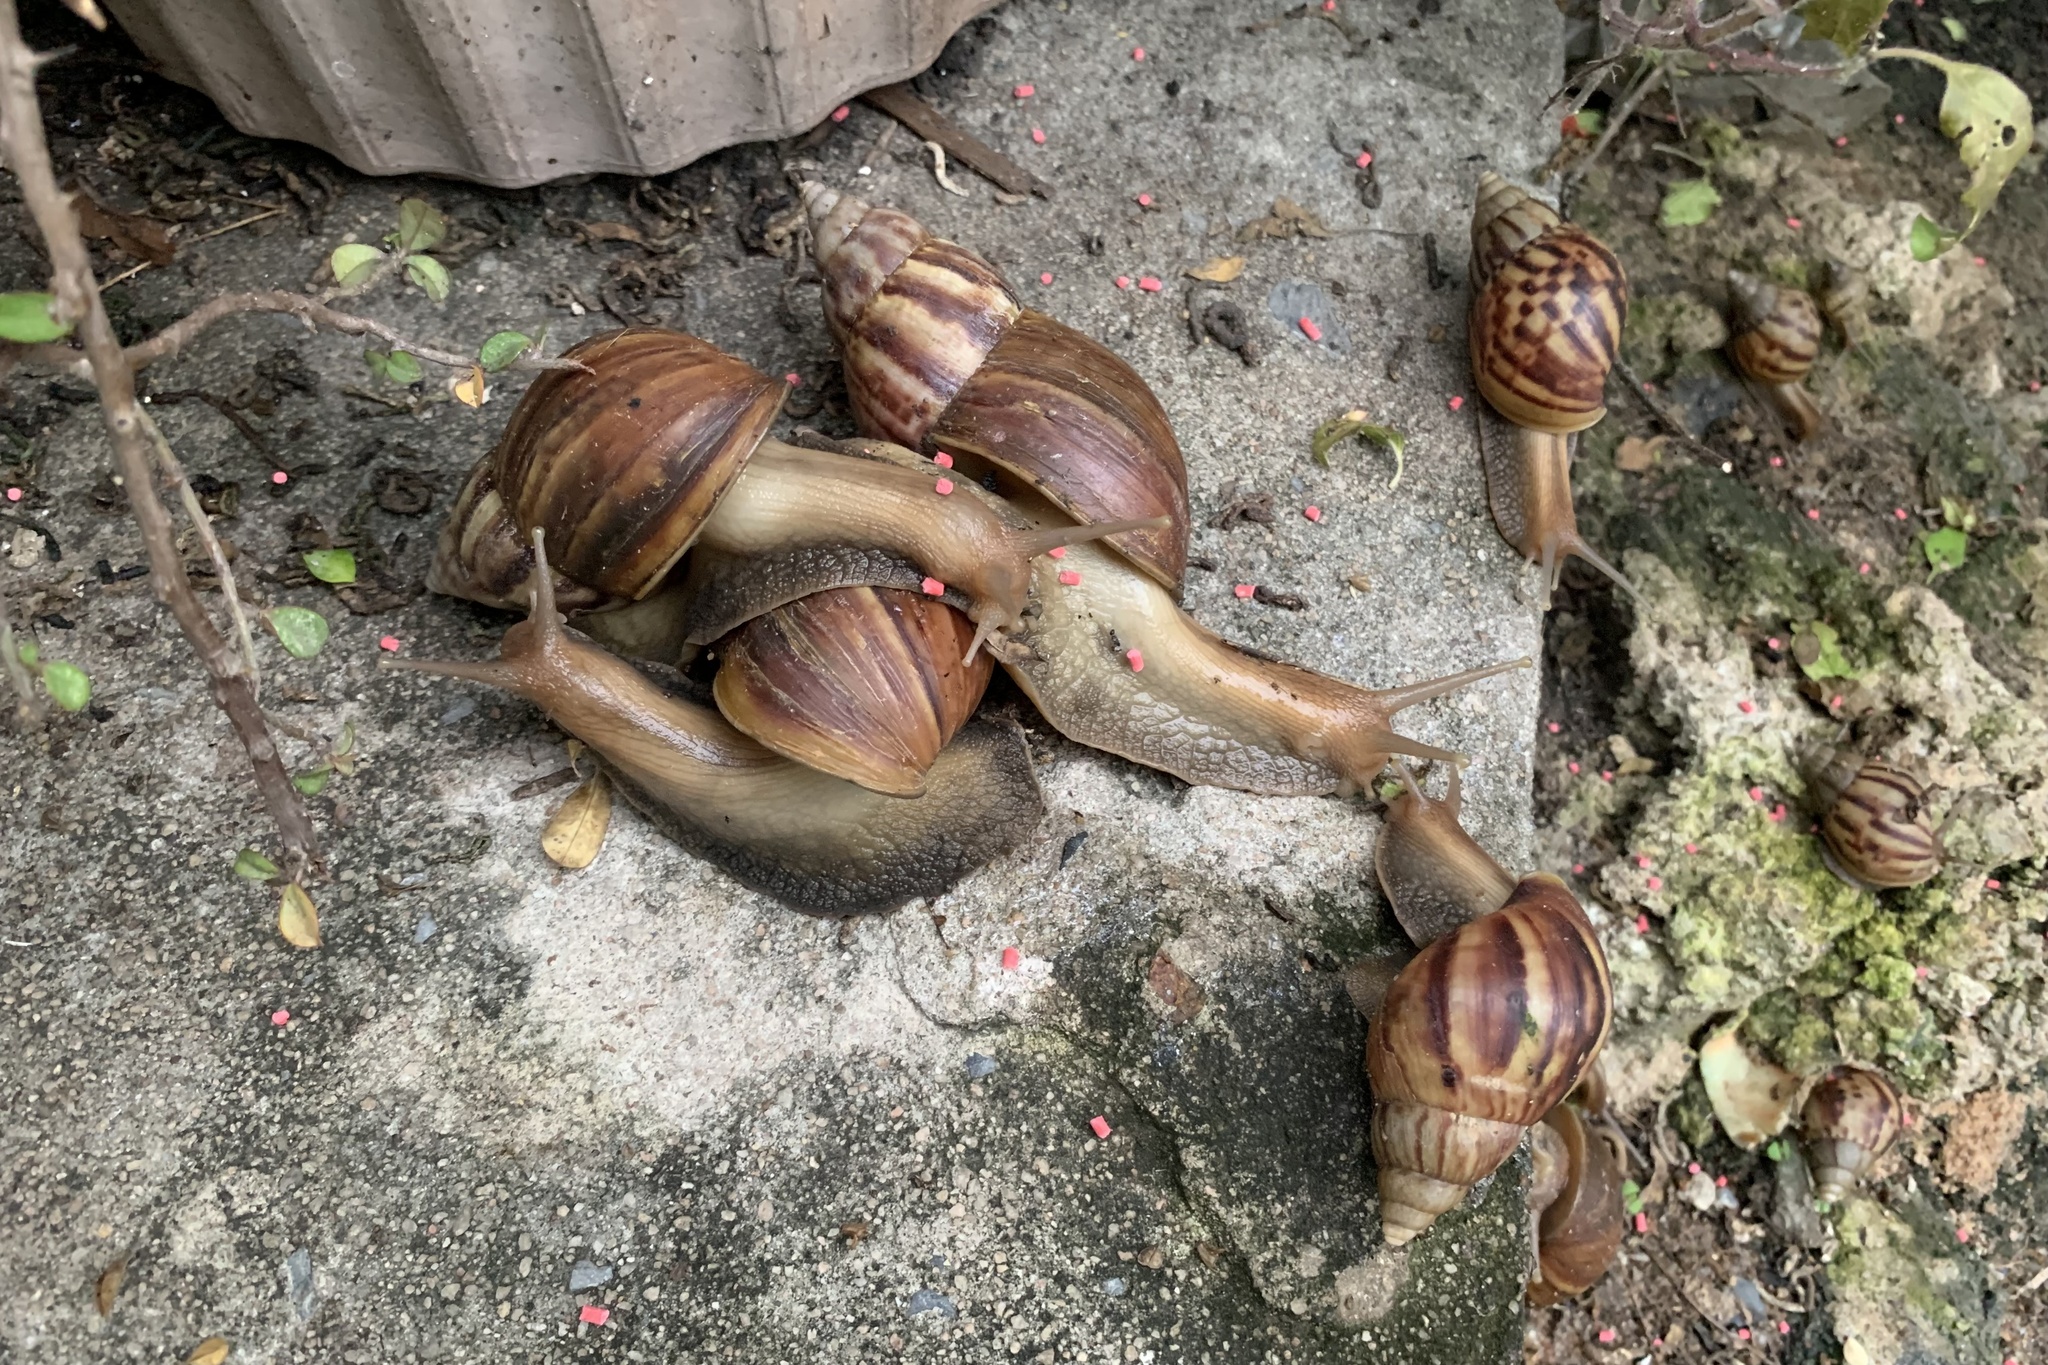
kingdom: Animalia
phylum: Mollusca
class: Gastropoda
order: Stylommatophora
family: Achatinidae
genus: Lissachatina
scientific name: Lissachatina fulica
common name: Giant african snail
